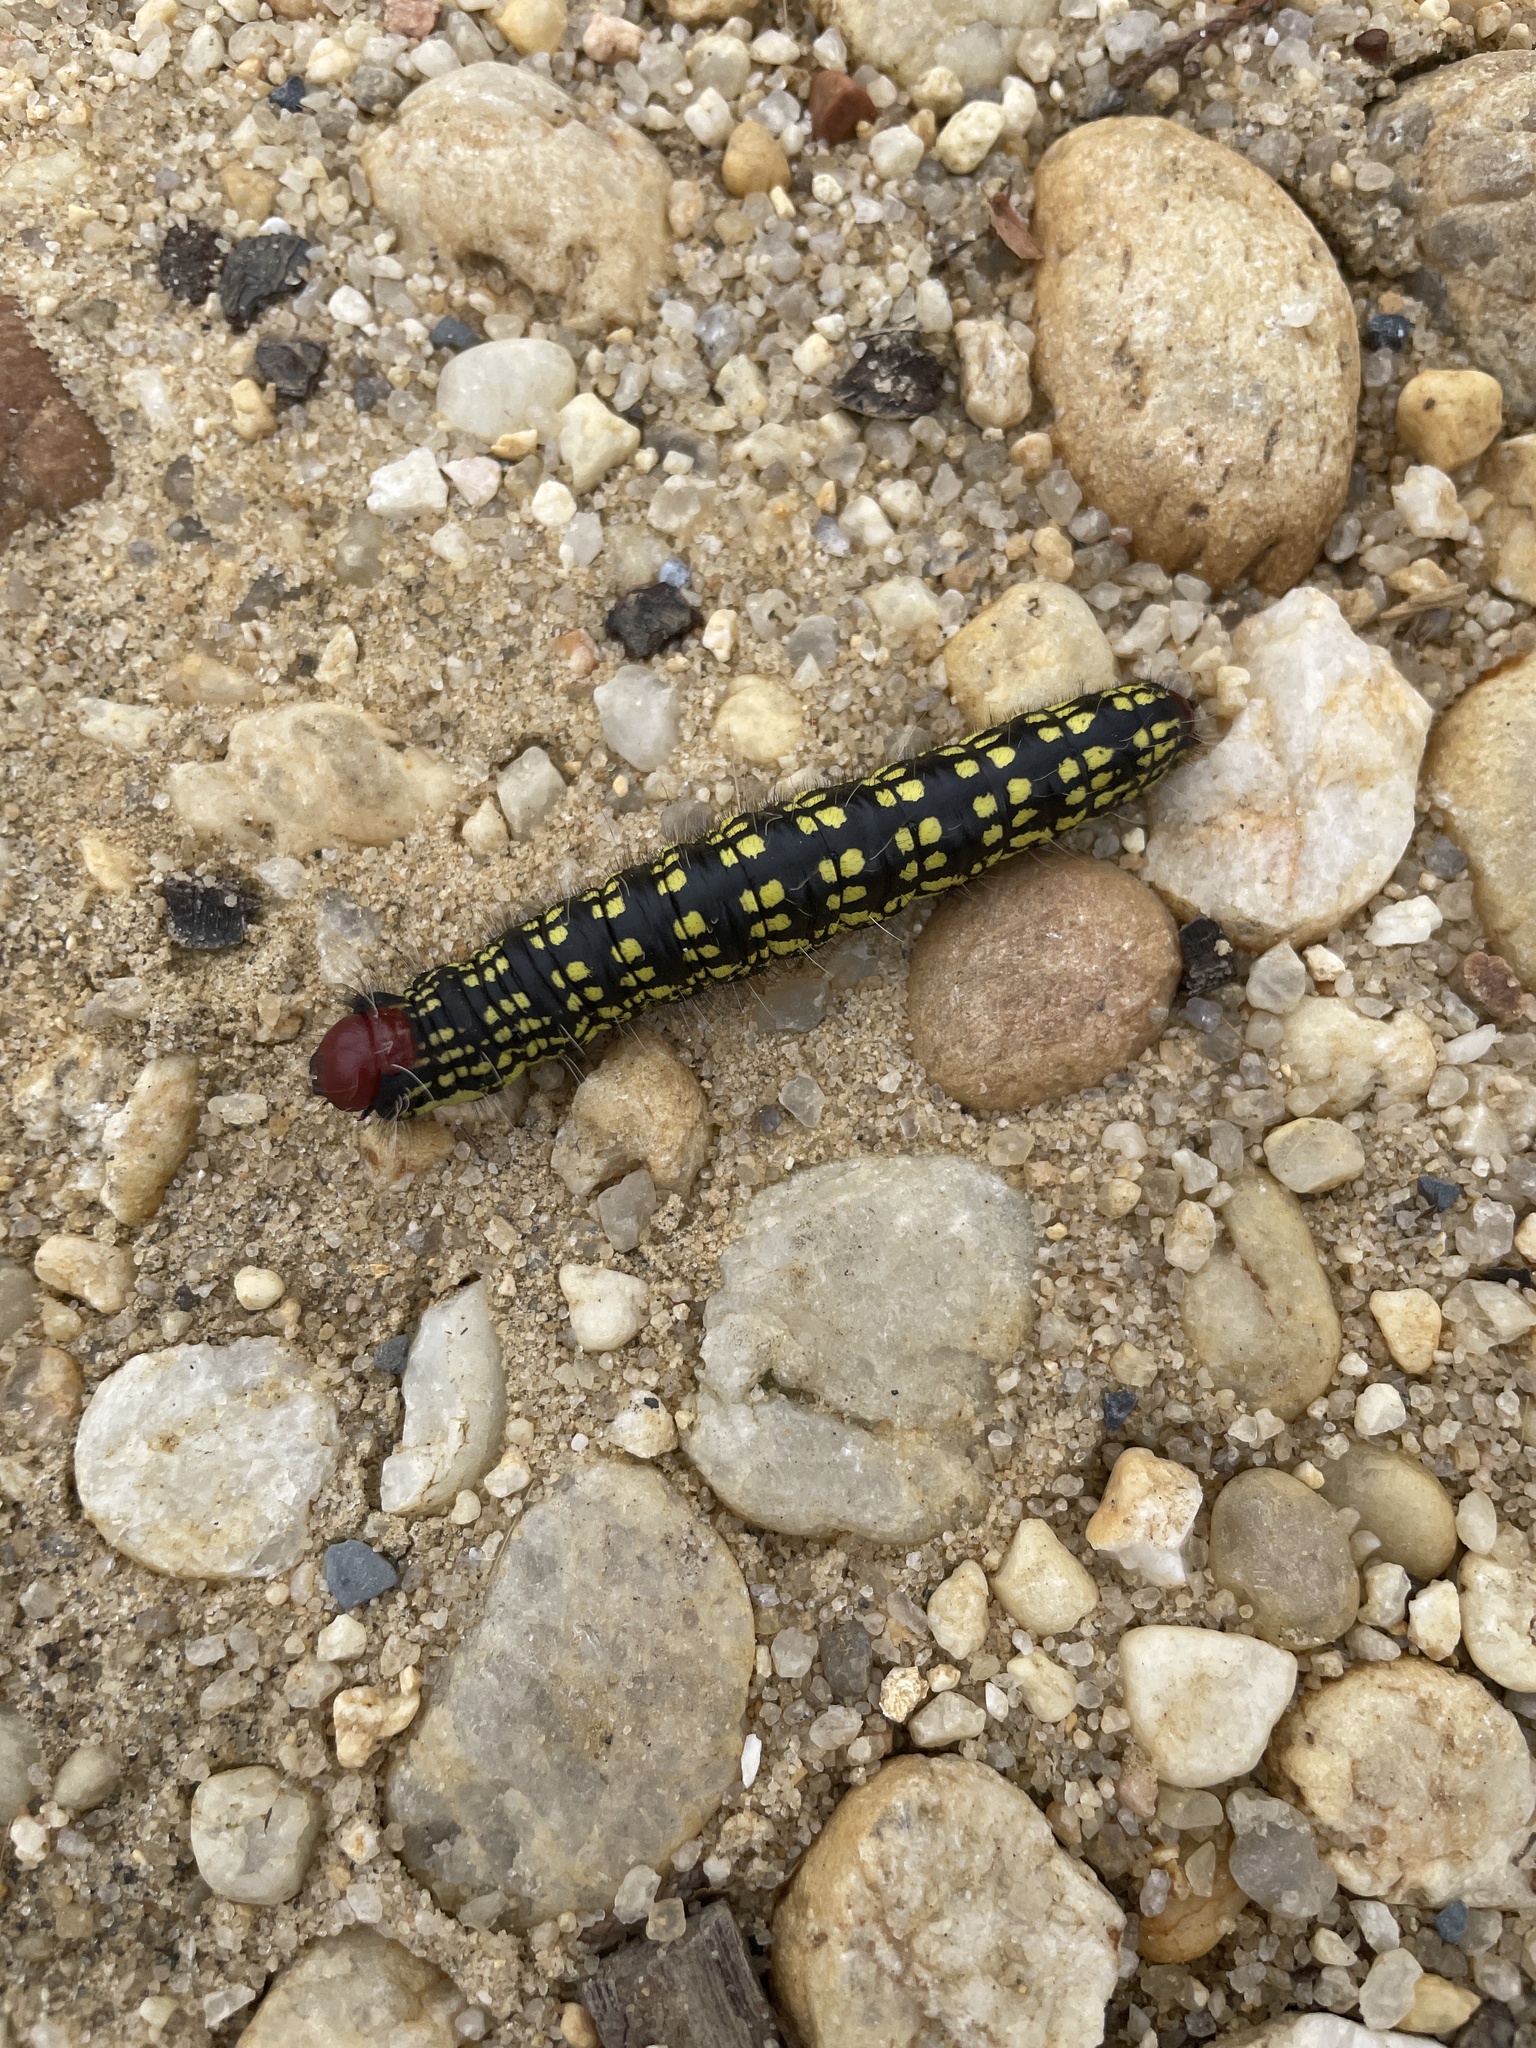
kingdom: Animalia
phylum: Arthropoda
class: Insecta
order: Lepidoptera
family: Notodontidae
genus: Datana
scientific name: Datana major
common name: Azalea caterpillar
